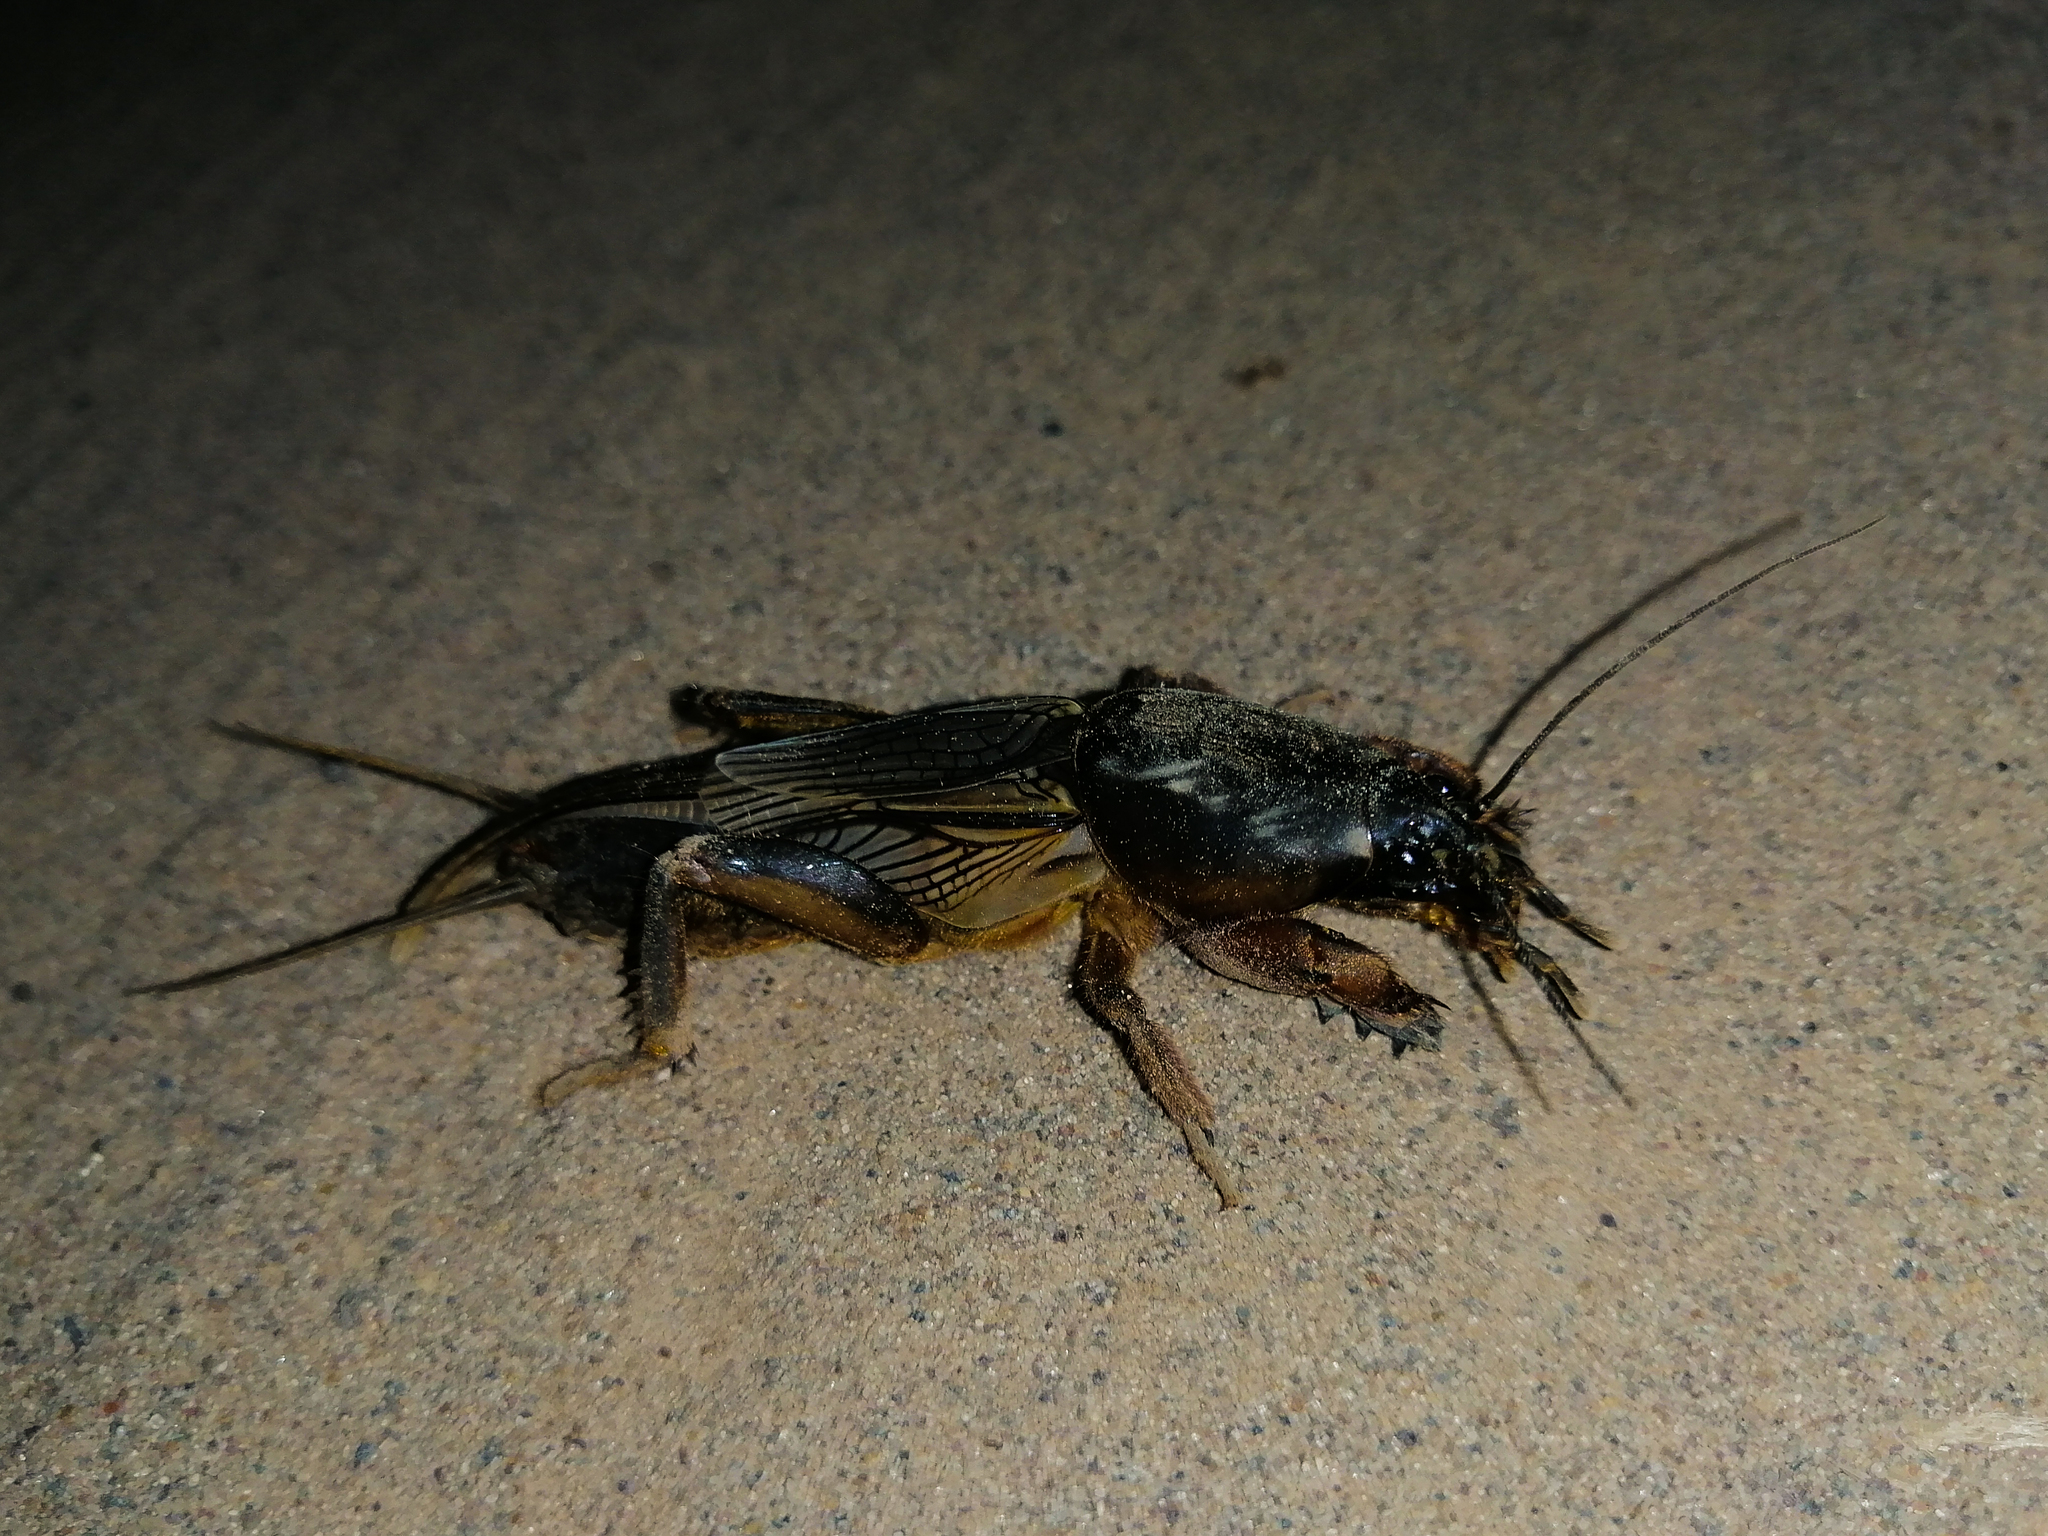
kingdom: Animalia
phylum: Arthropoda
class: Insecta
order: Orthoptera
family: Gryllotalpidae
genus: Gryllotalpa
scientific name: Gryllotalpa gryllotalpa
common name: European mole cricket
